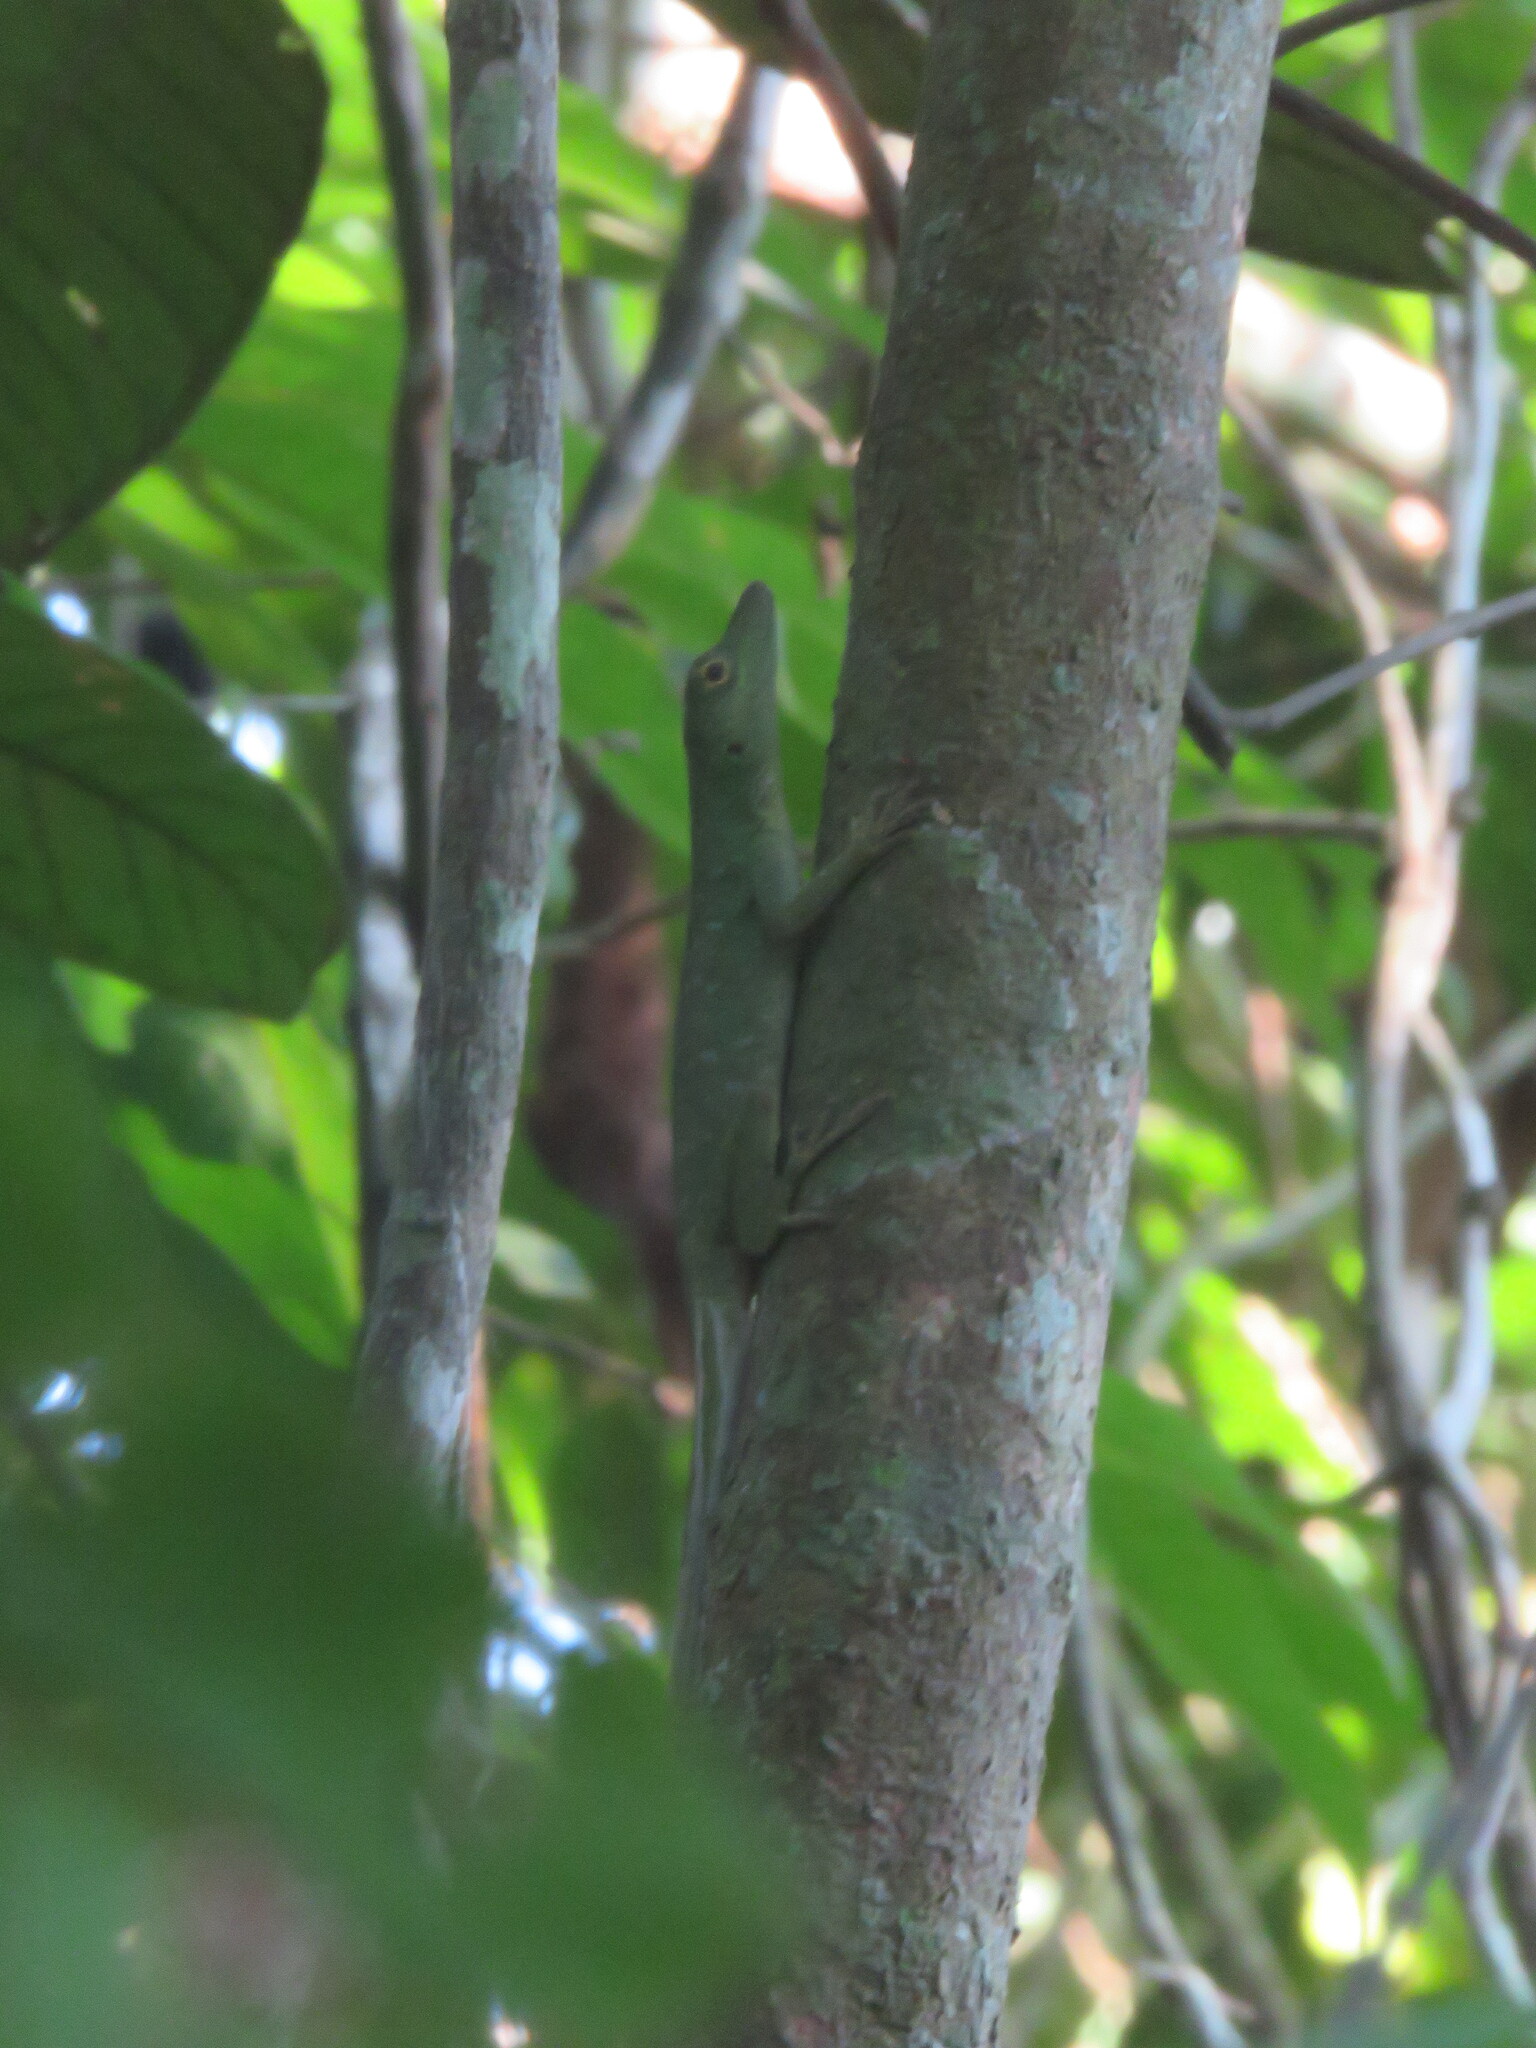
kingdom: Animalia
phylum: Chordata
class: Squamata
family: Dactyloidae
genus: Anolis
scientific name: Anolis punctatus
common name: Amazon green anole
